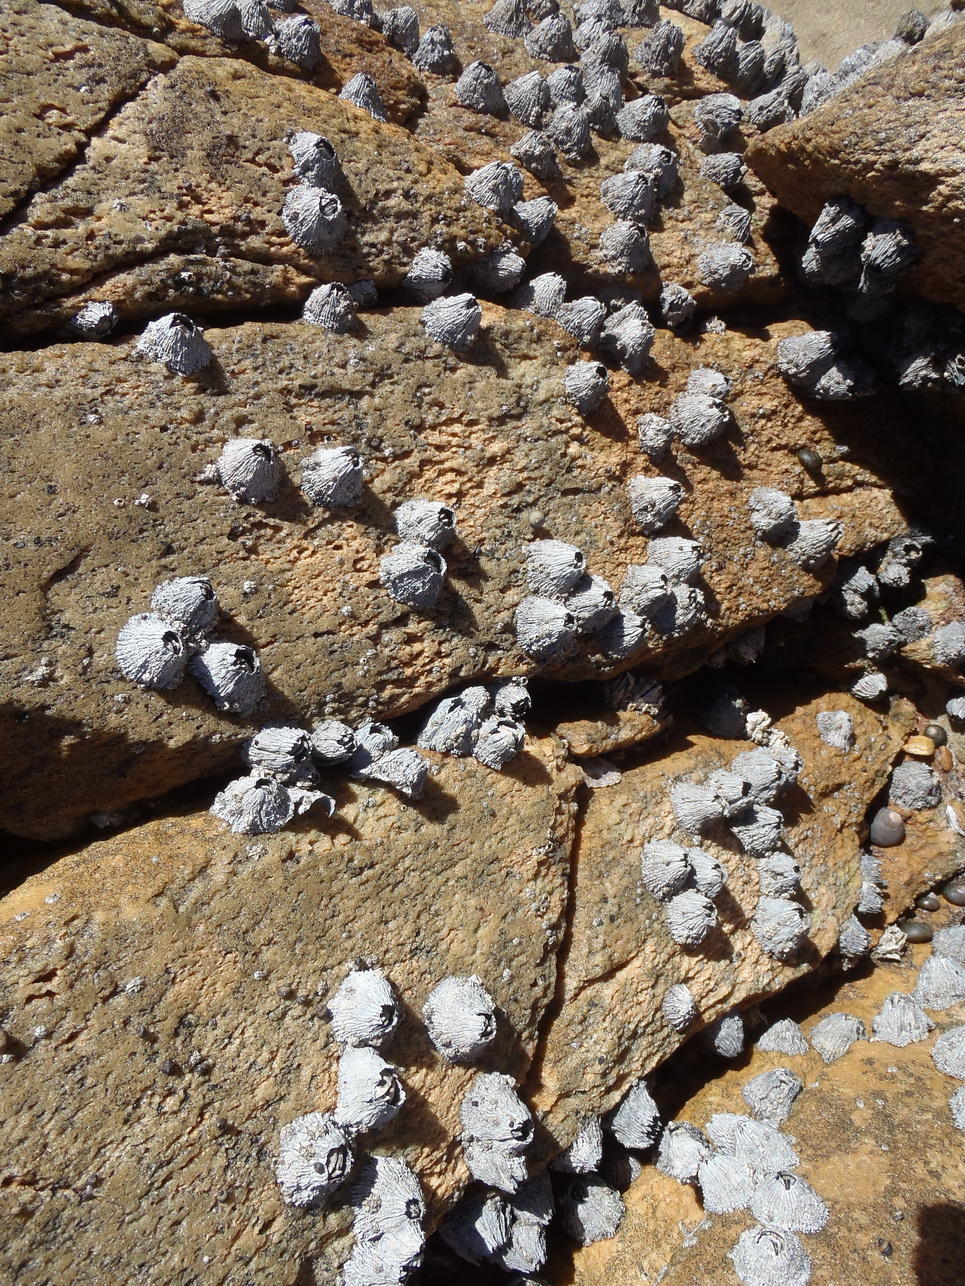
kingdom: Animalia
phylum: Arthropoda
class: Maxillopoda
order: Sessilia
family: Tetraclitidae
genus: Tetraclita
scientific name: Tetraclita serrata
